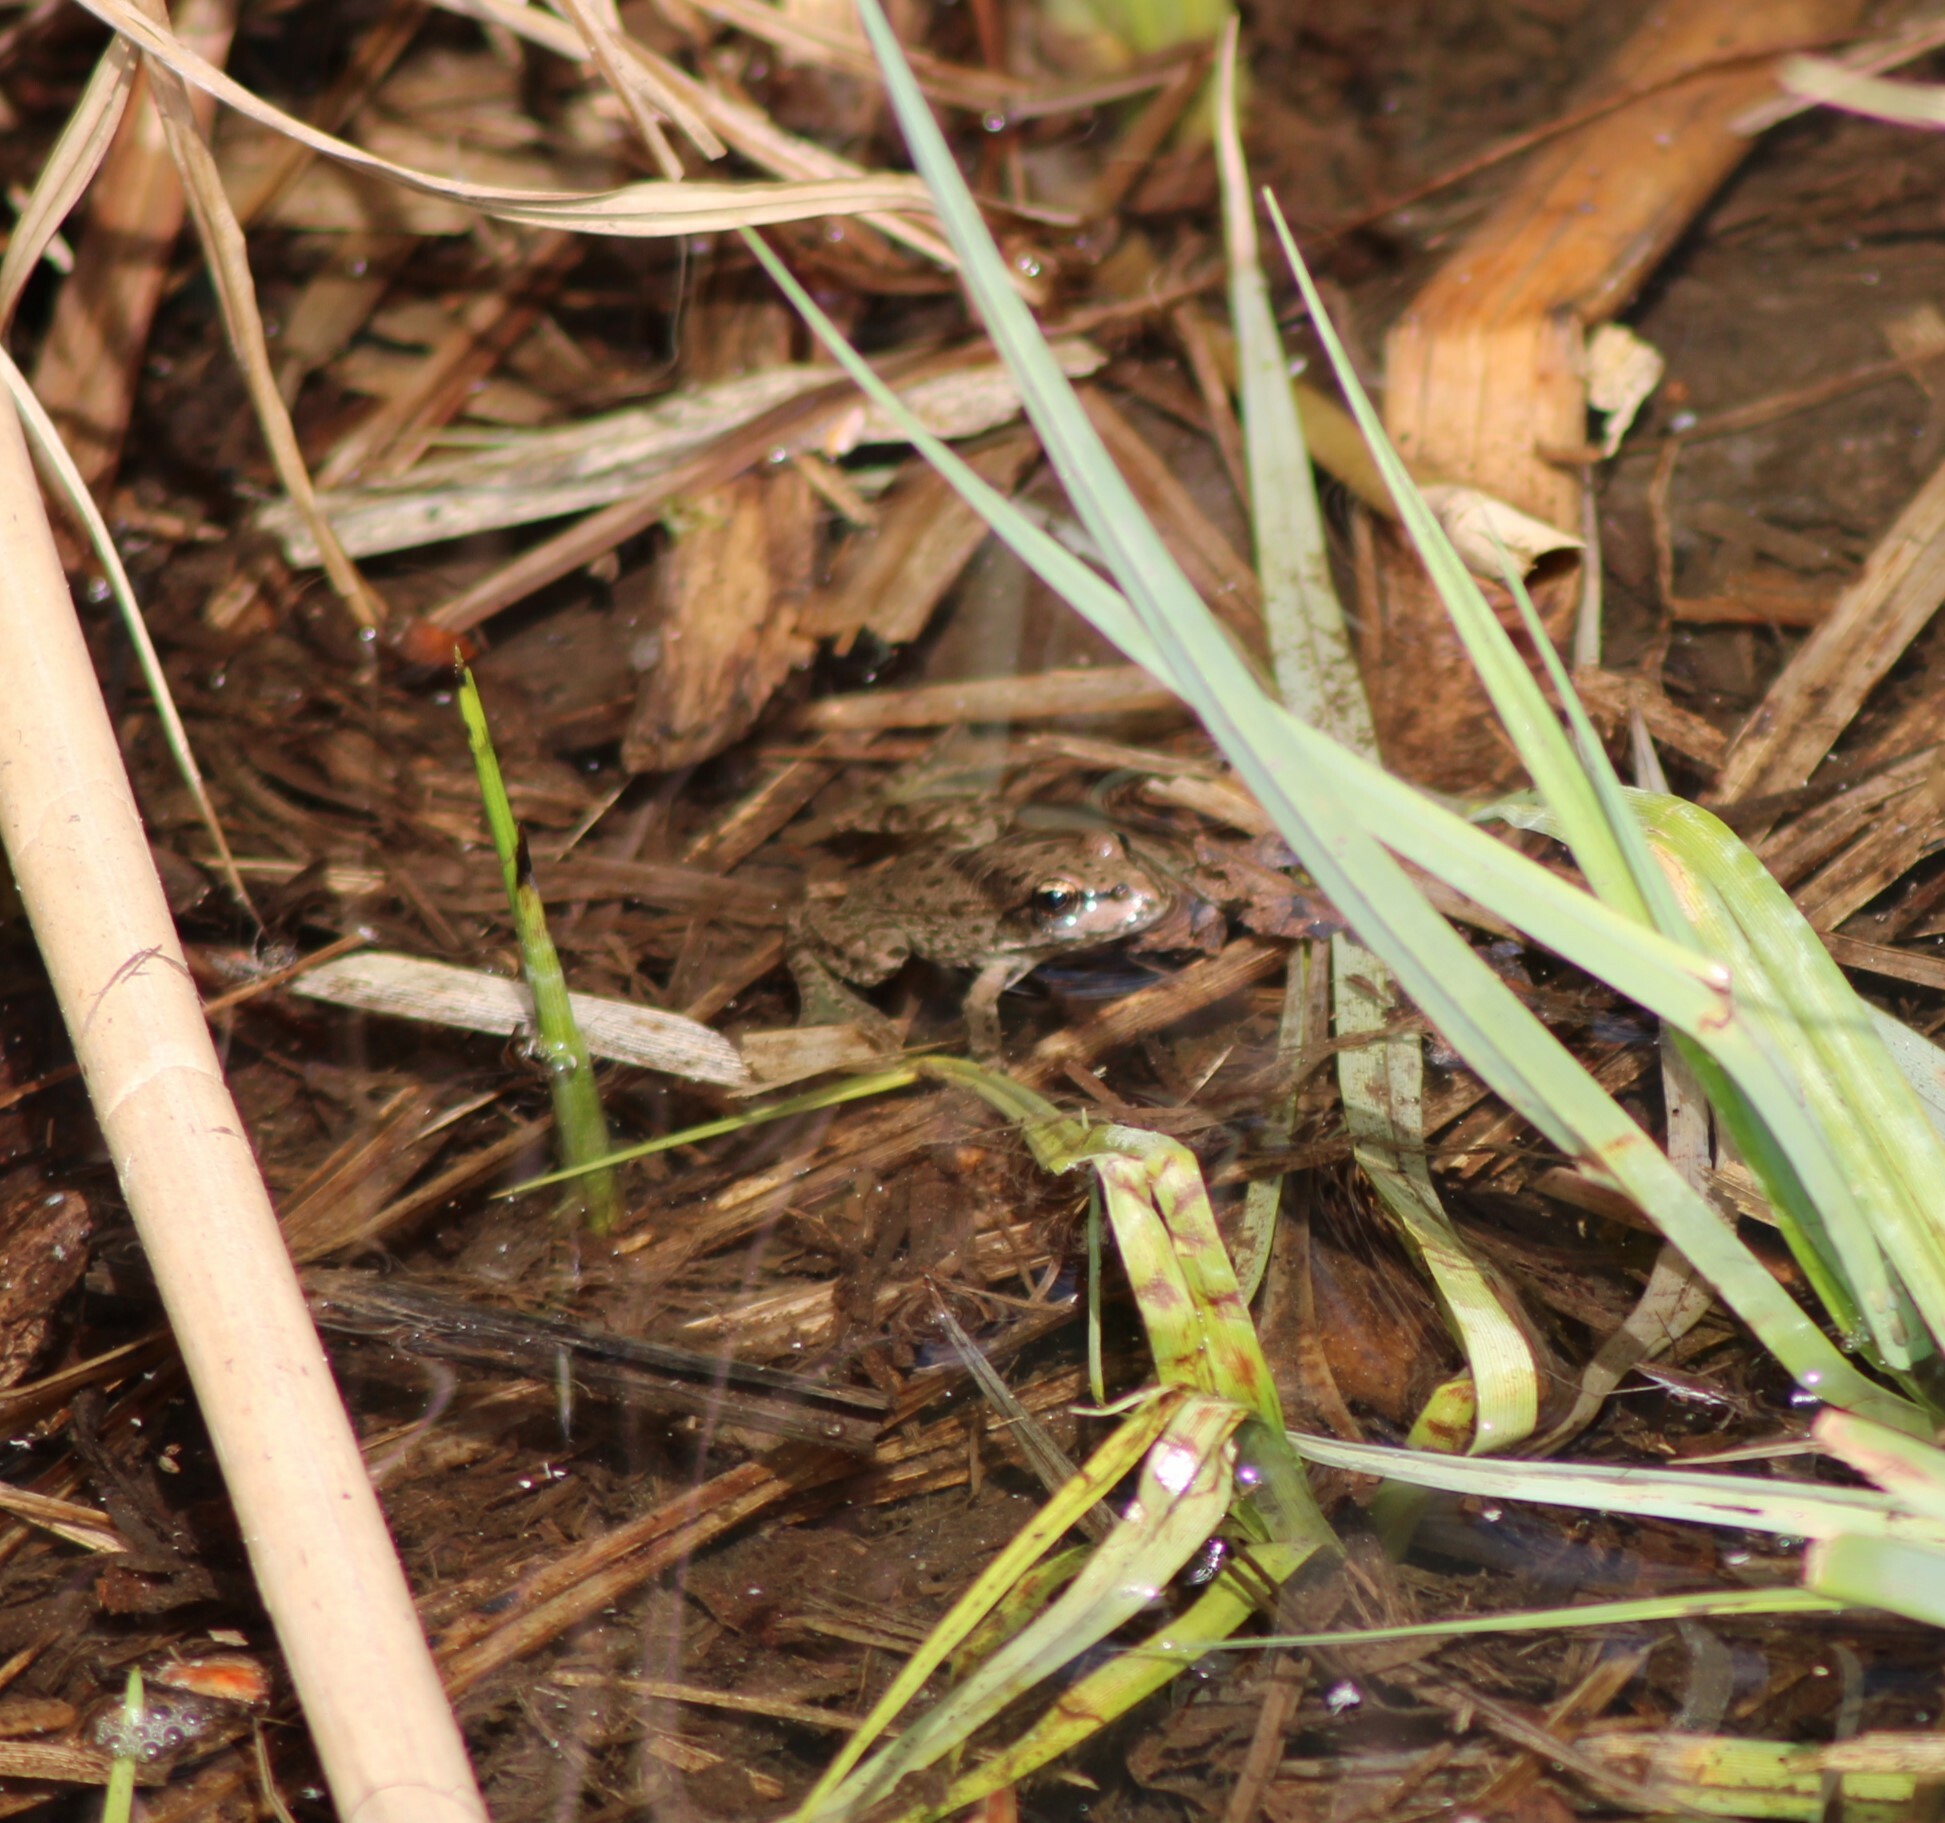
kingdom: Animalia
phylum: Chordata
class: Amphibia
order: Anura
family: Ranidae
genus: Pelophylax
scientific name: Pelophylax
